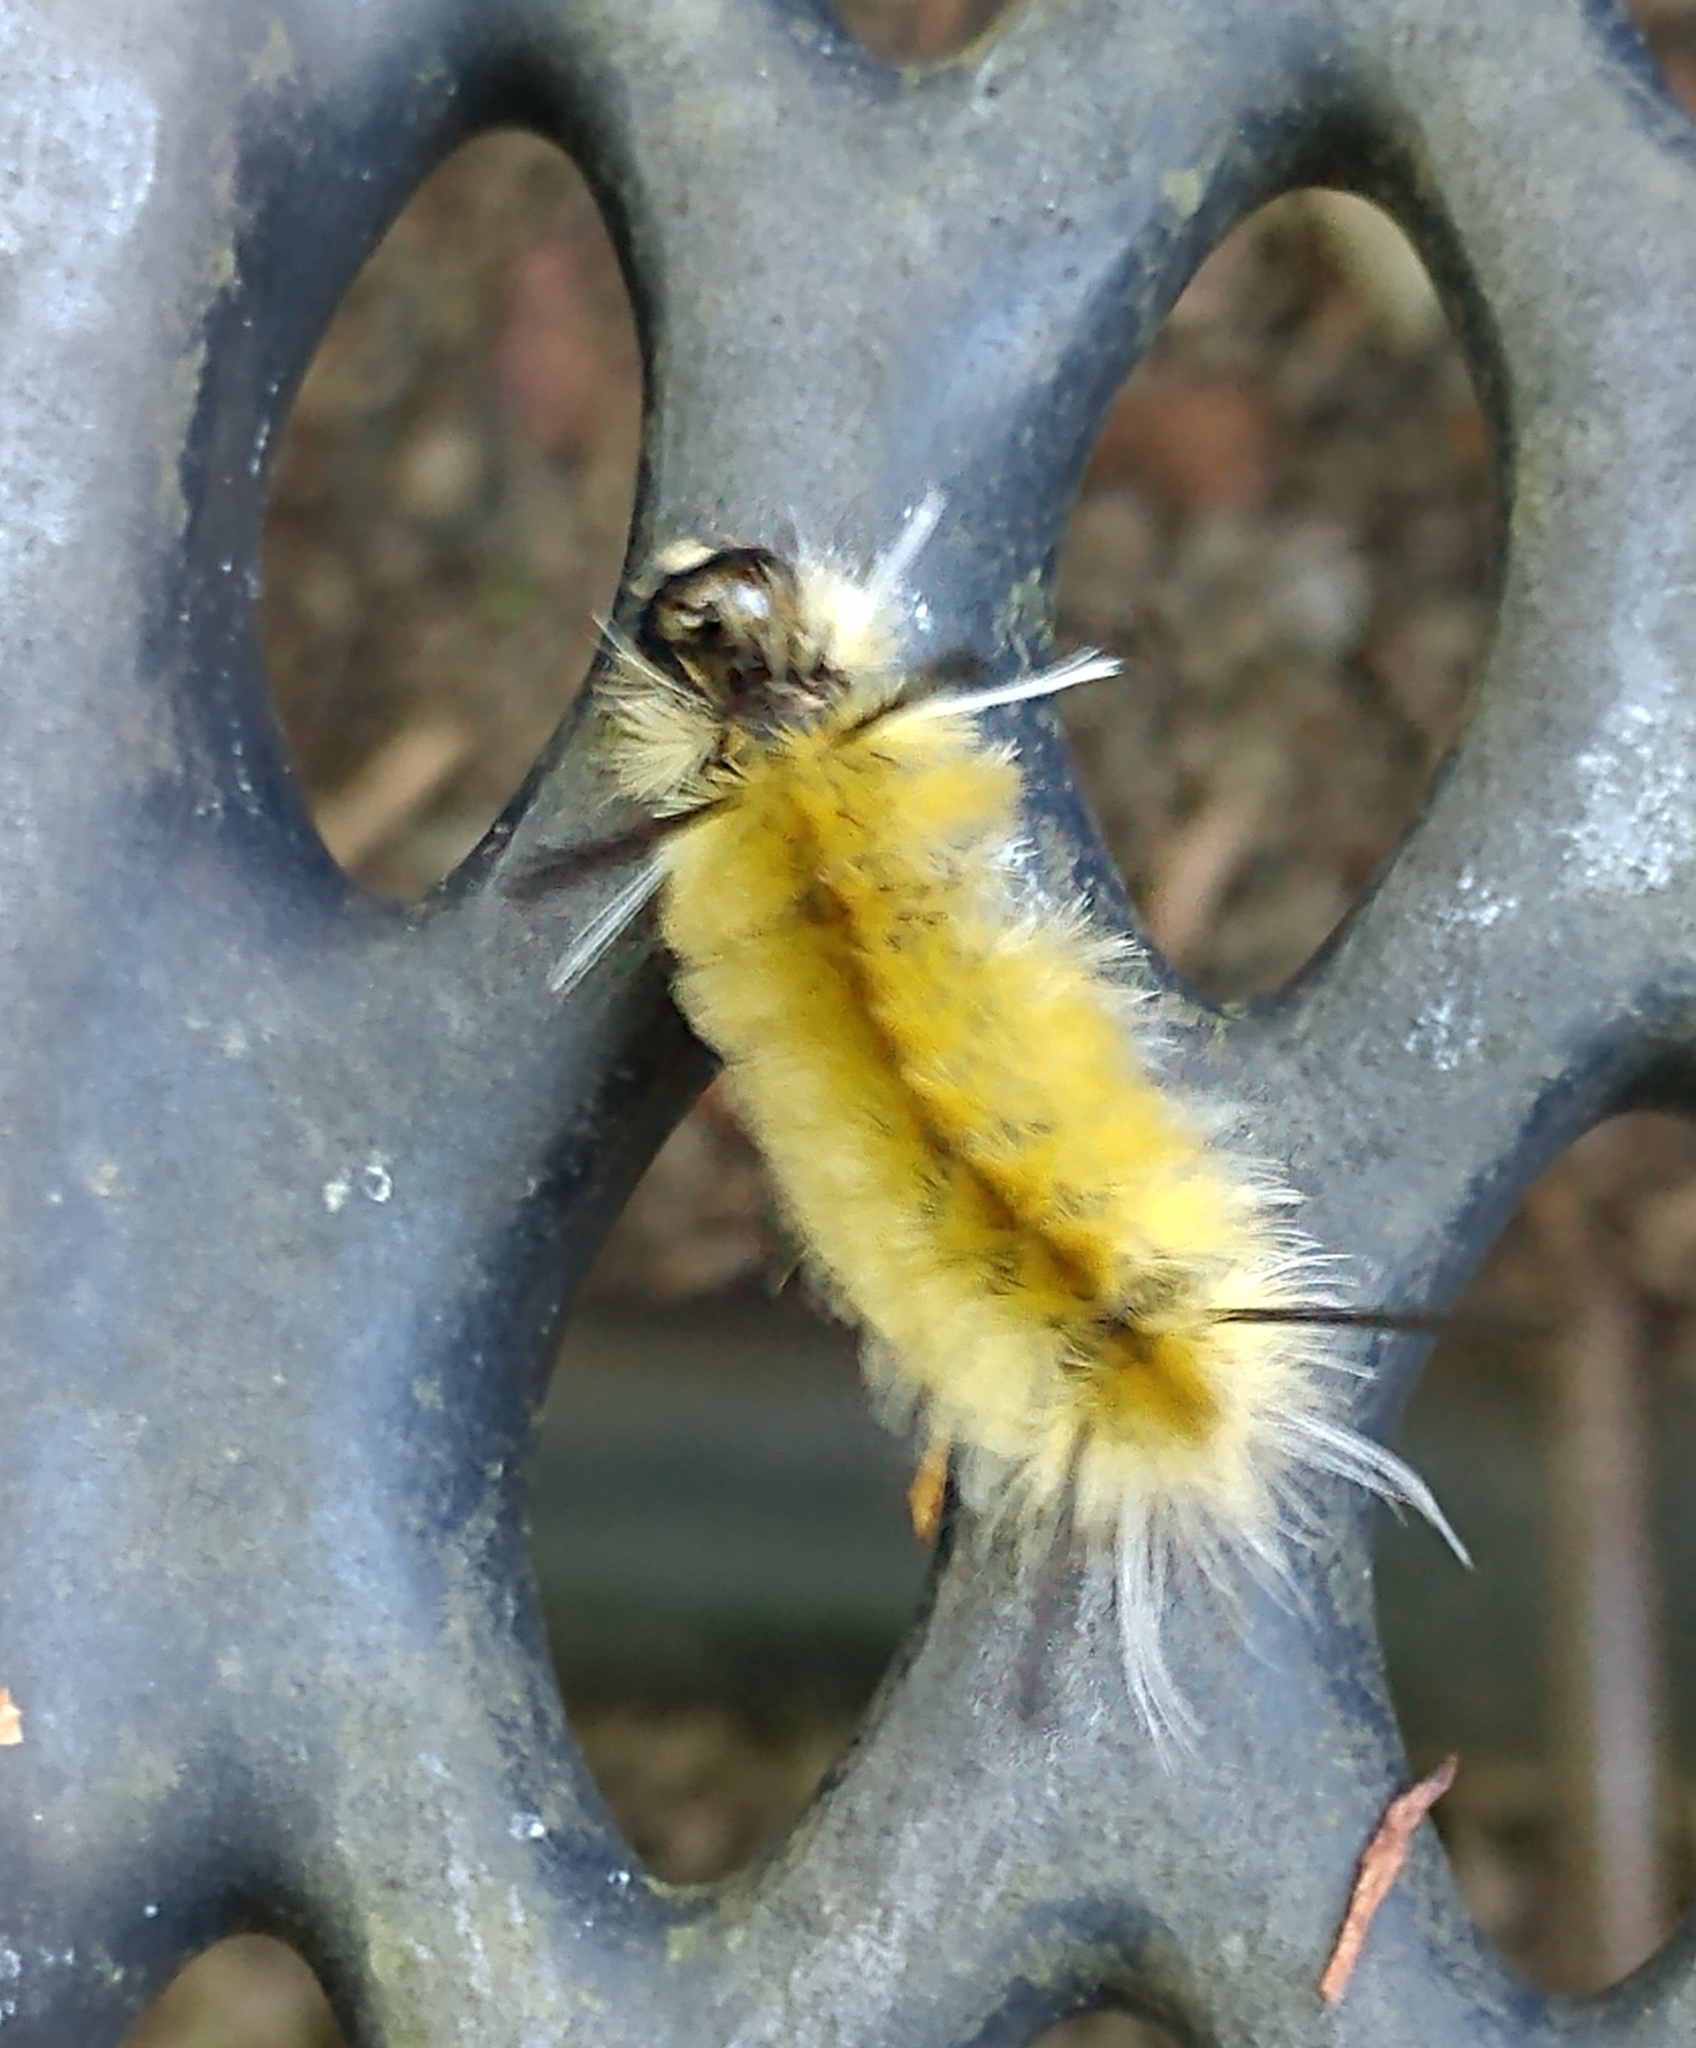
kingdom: Animalia
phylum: Arthropoda
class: Insecta
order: Lepidoptera
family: Erebidae
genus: Halysidota
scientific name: Halysidota tessellaris
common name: Banded tussock moth
